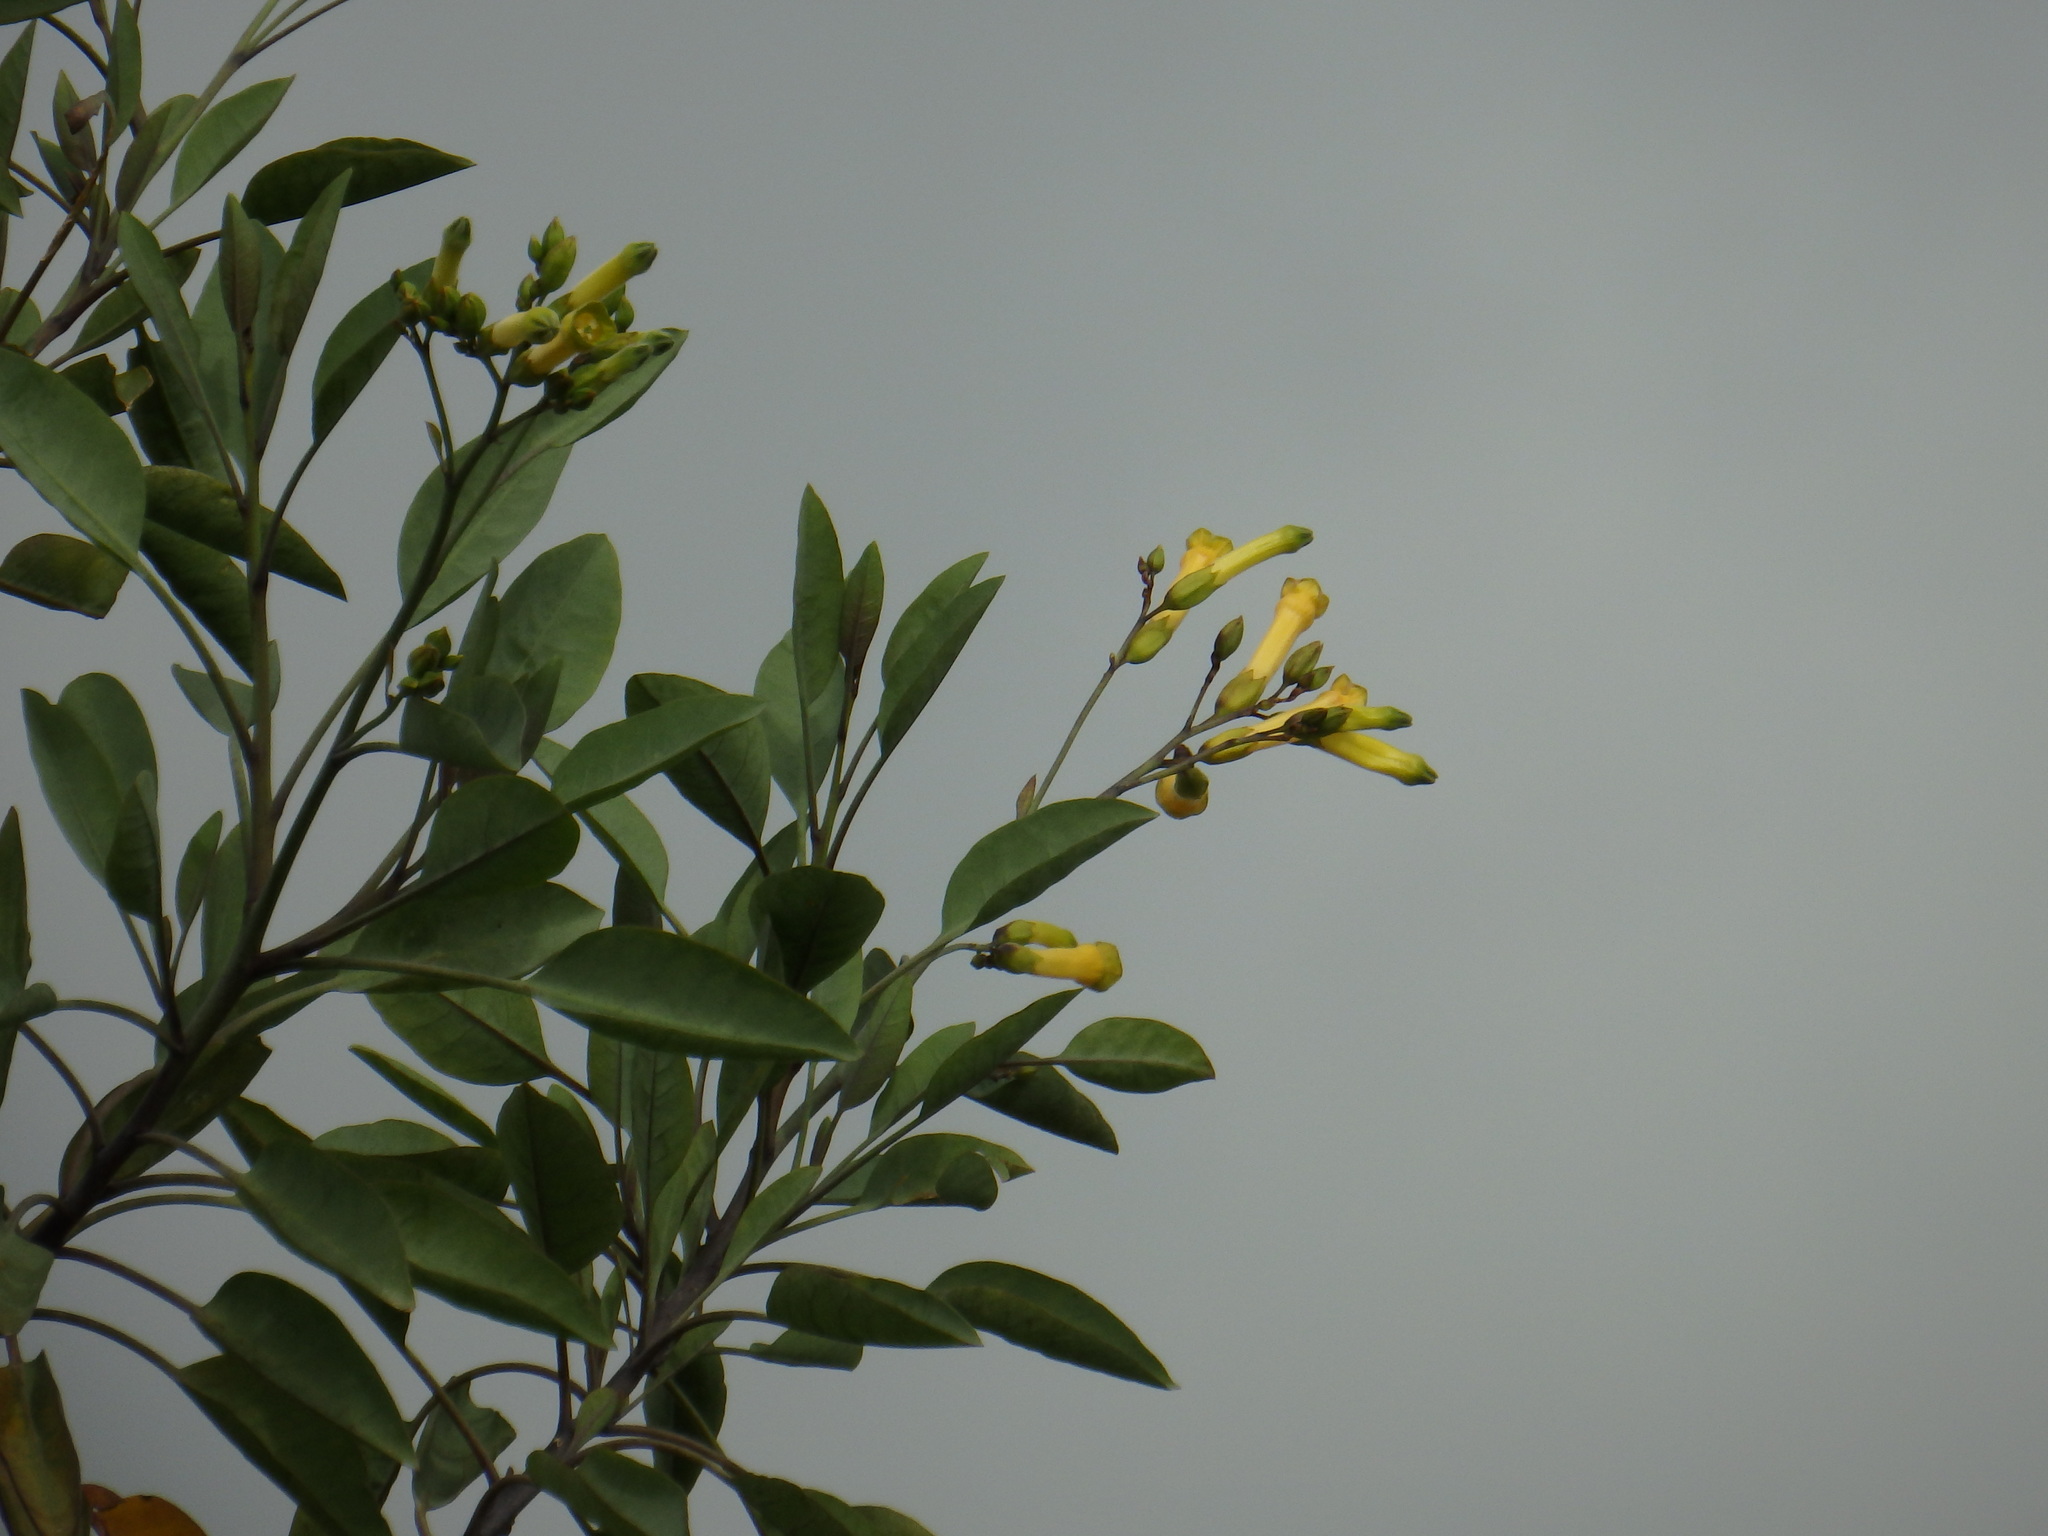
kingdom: Plantae
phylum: Tracheophyta
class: Magnoliopsida
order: Solanales
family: Solanaceae
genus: Nicotiana
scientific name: Nicotiana glauca
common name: Tree tobacco
